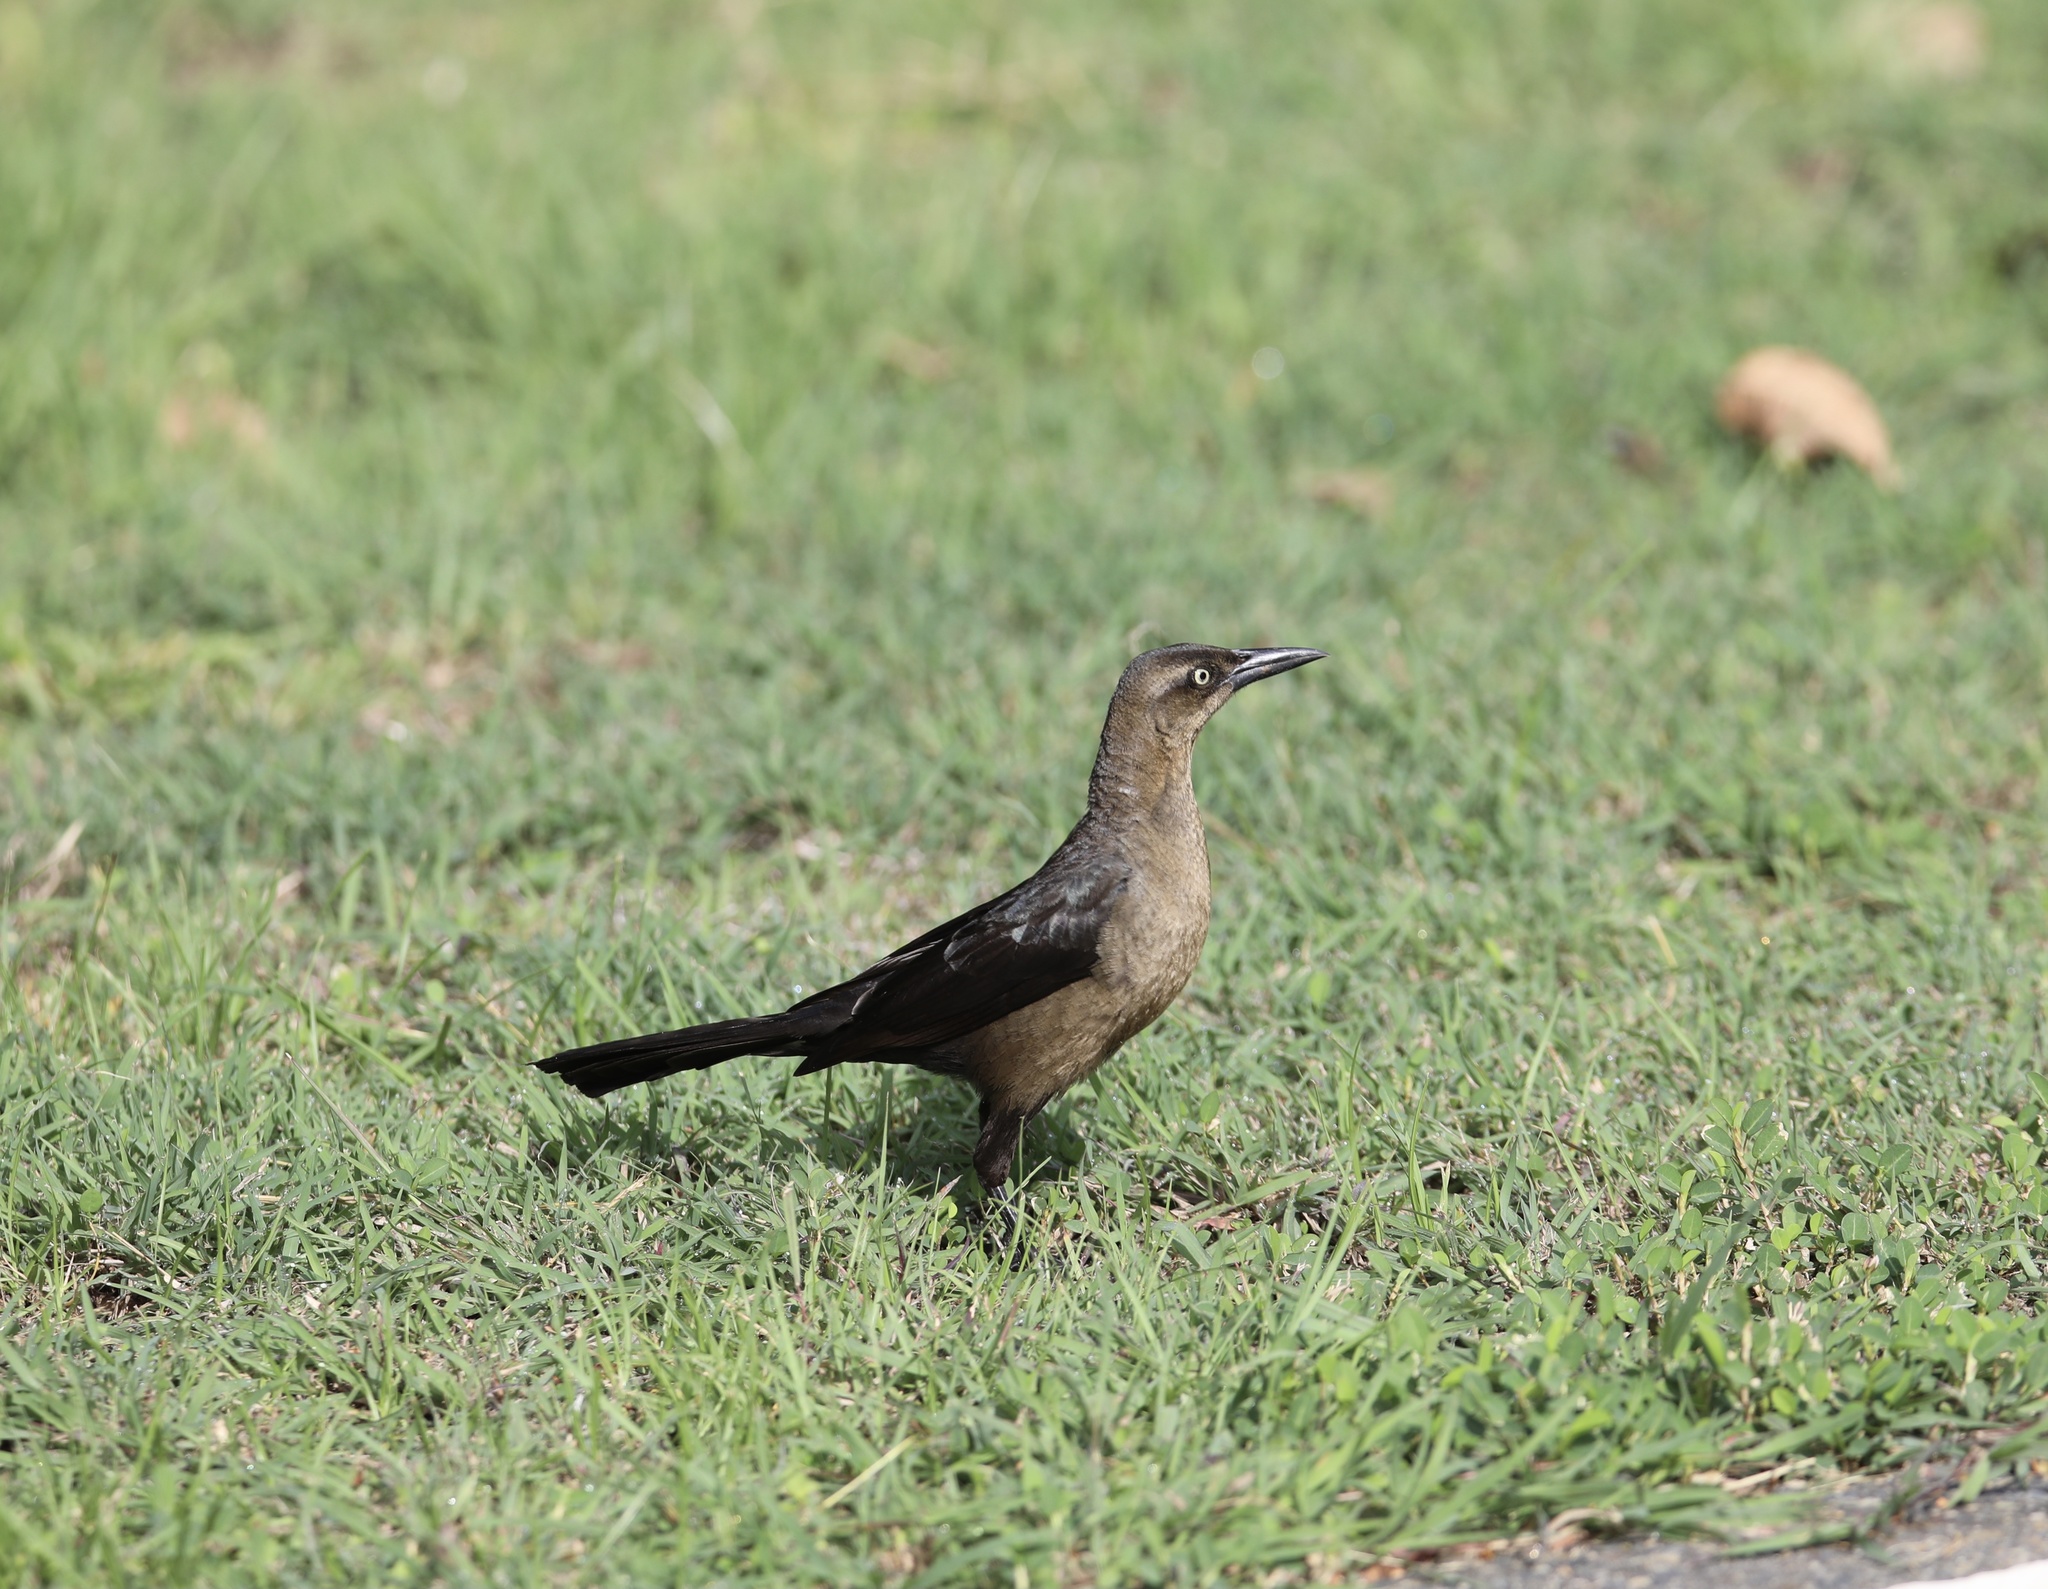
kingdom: Animalia
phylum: Chordata
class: Aves
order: Passeriformes
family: Icteridae
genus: Quiscalus
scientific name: Quiscalus mexicanus
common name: Great-tailed grackle
